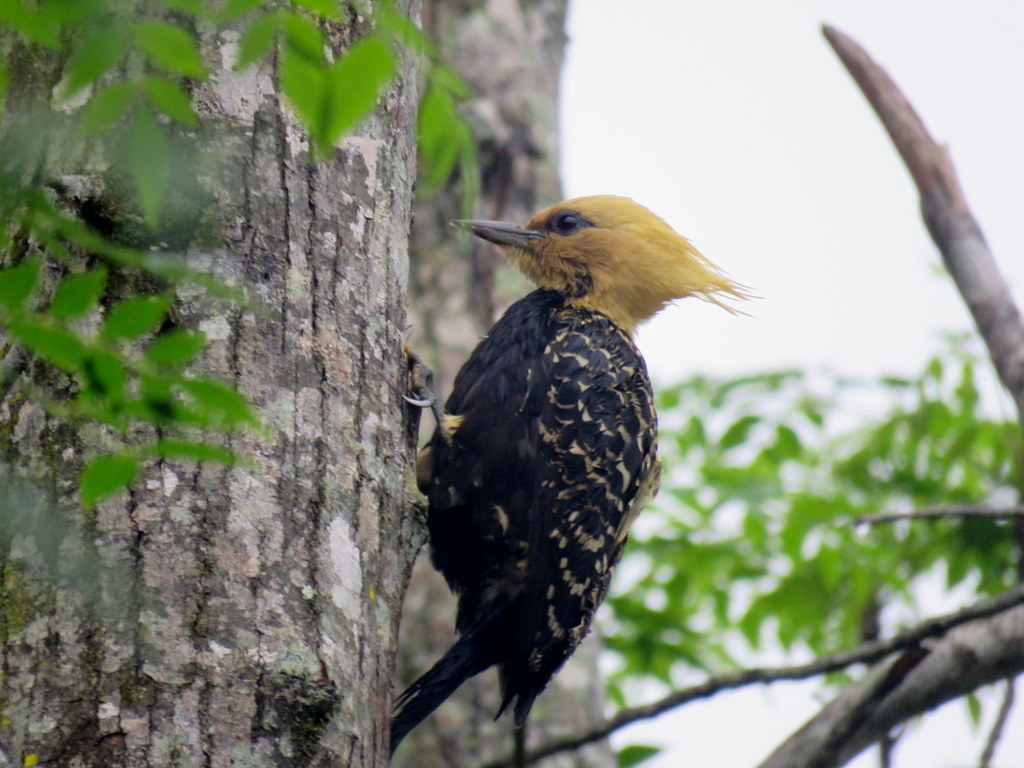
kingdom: Animalia
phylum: Chordata
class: Aves
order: Piciformes
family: Picidae
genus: Celeus
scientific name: Celeus flavescens
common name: Blond-crested woodpecker
